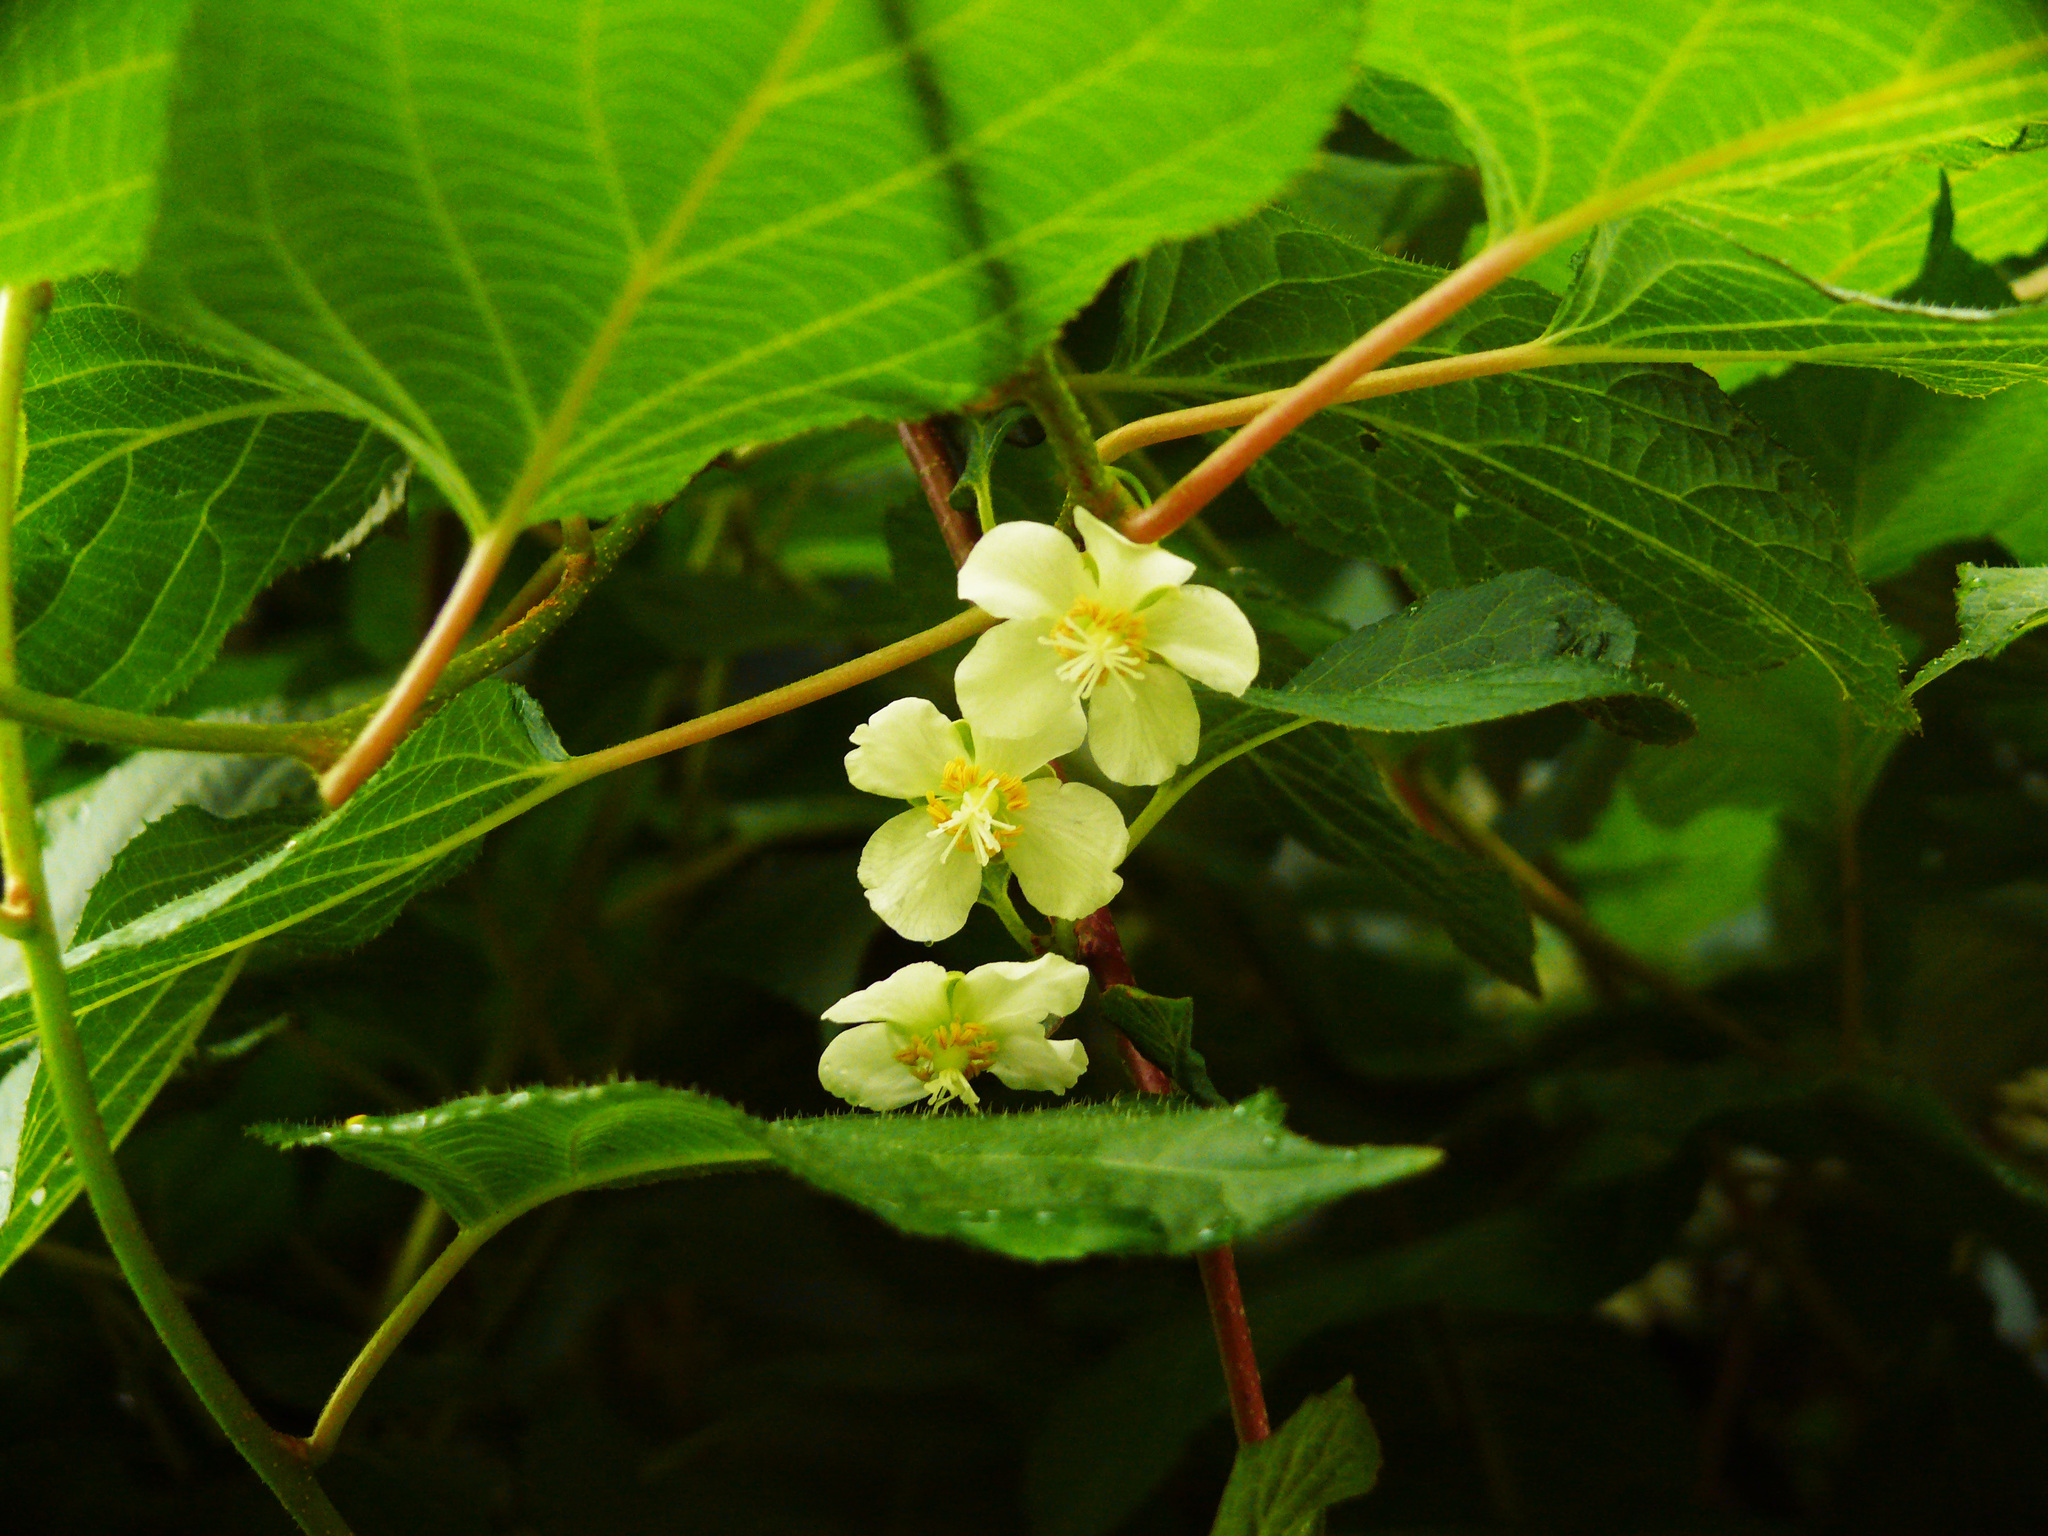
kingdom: Plantae
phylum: Tracheophyta
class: Magnoliopsida
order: Ericales
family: Actinidiaceae
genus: Actinidia
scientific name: Actinidia kolomikta
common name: Arctic beauty kiwi
